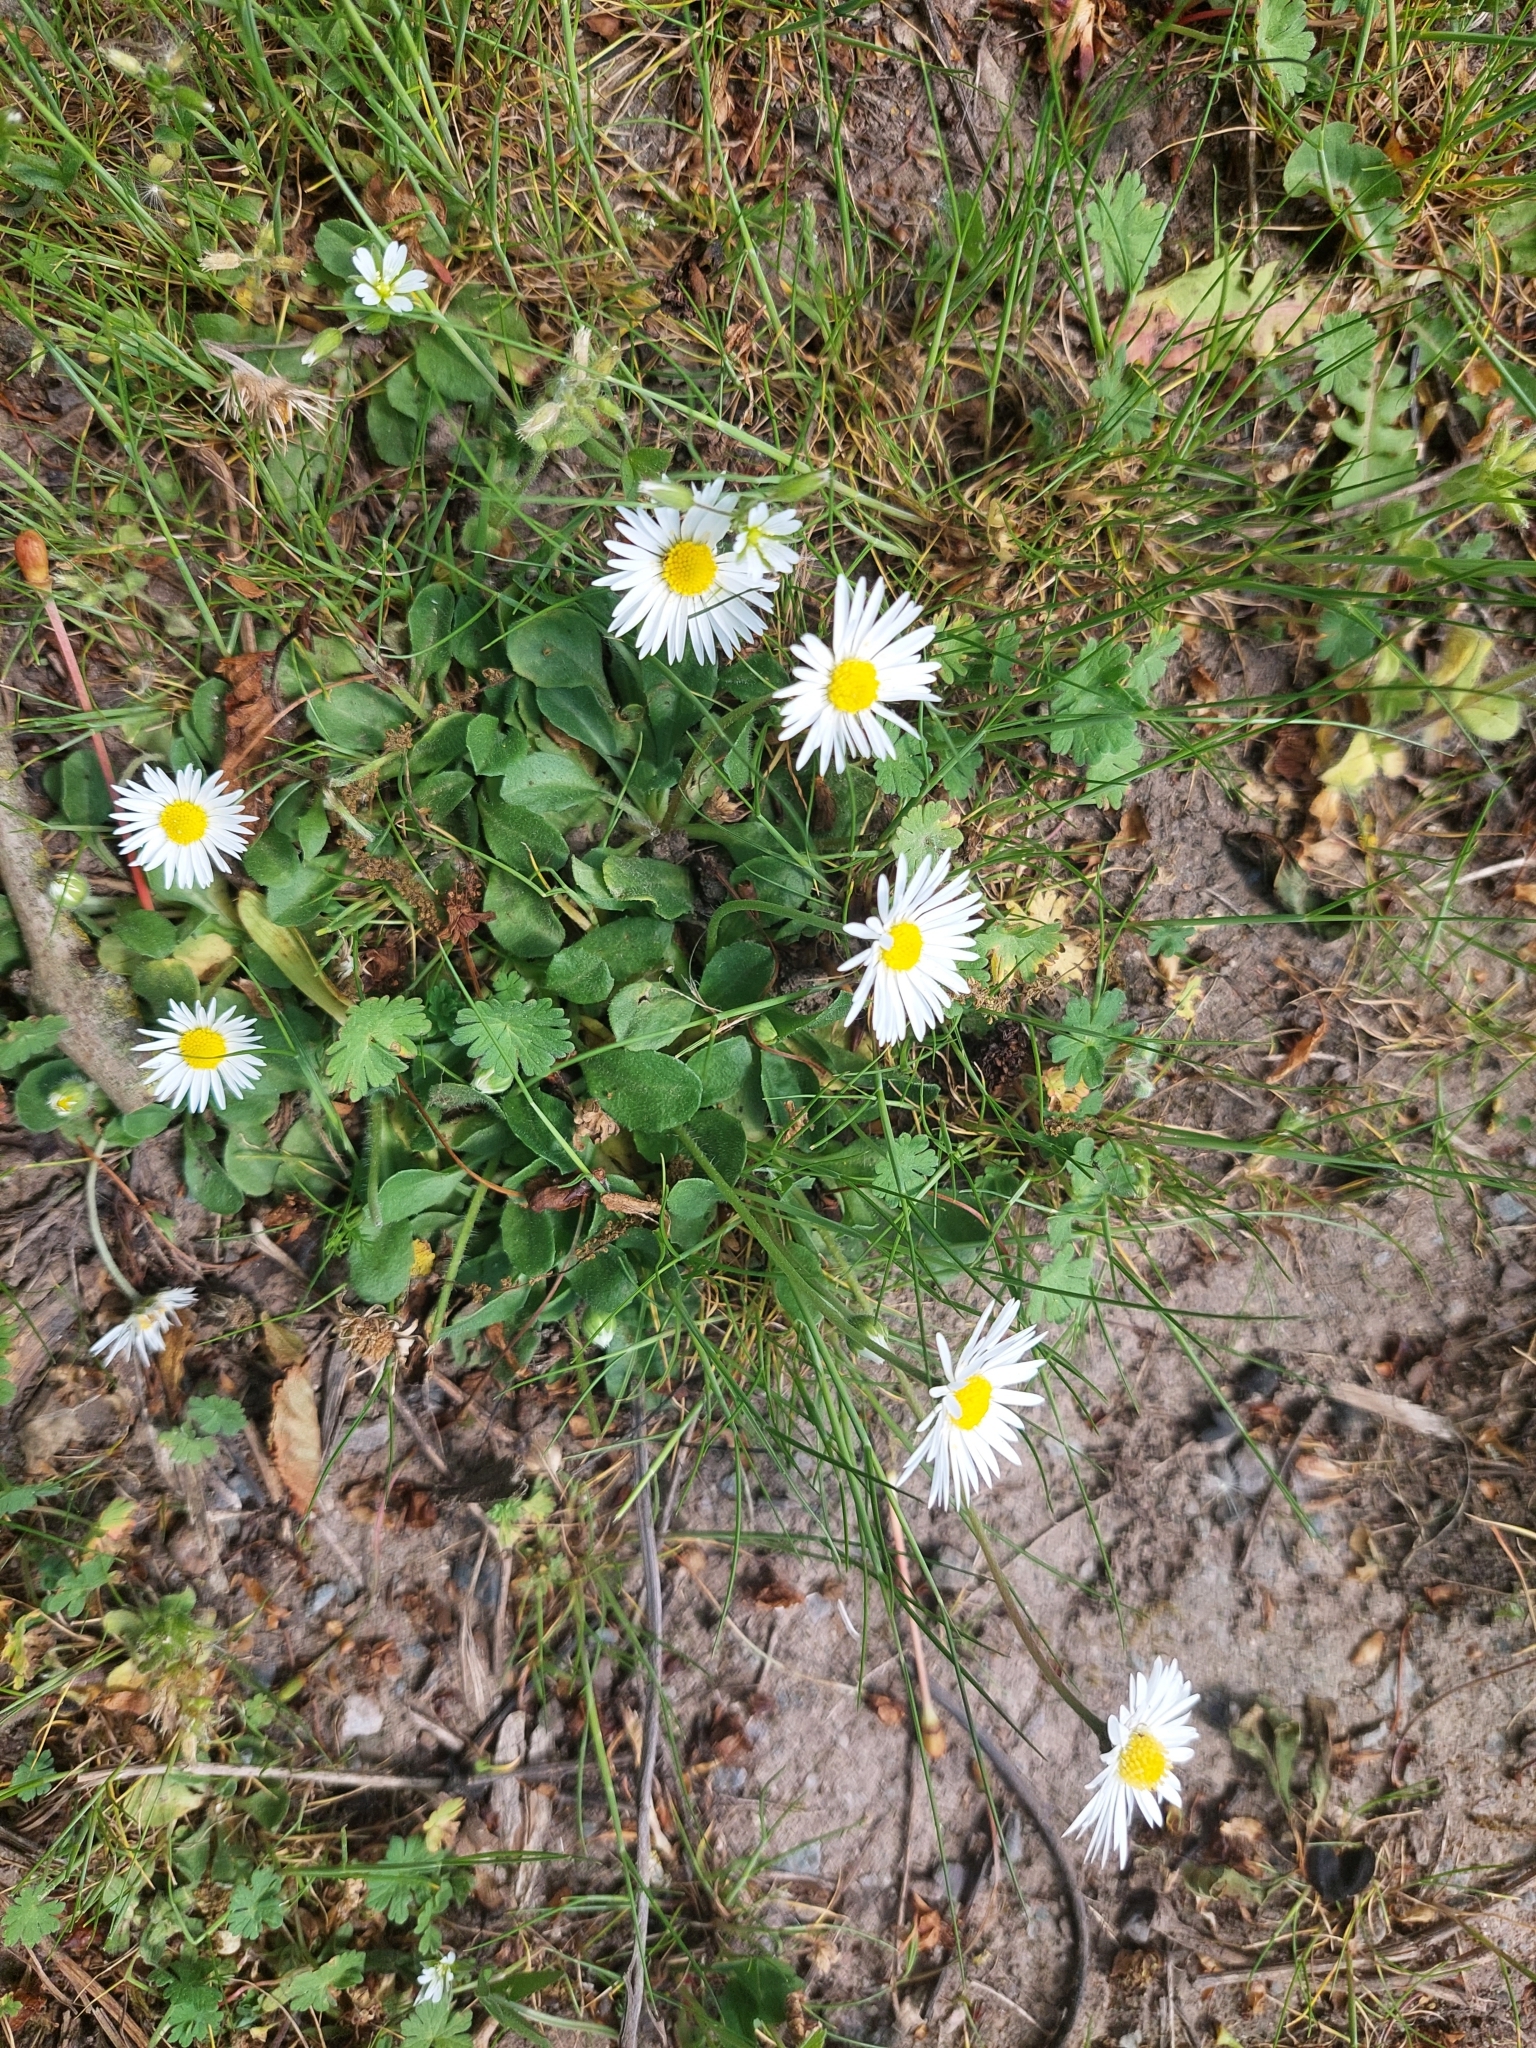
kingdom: Plantae
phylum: Tracheophyta
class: Magnoliopsida
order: Asterales
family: Asteraceae
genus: Bellis
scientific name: Bellis perennis
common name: Lawndaisy
